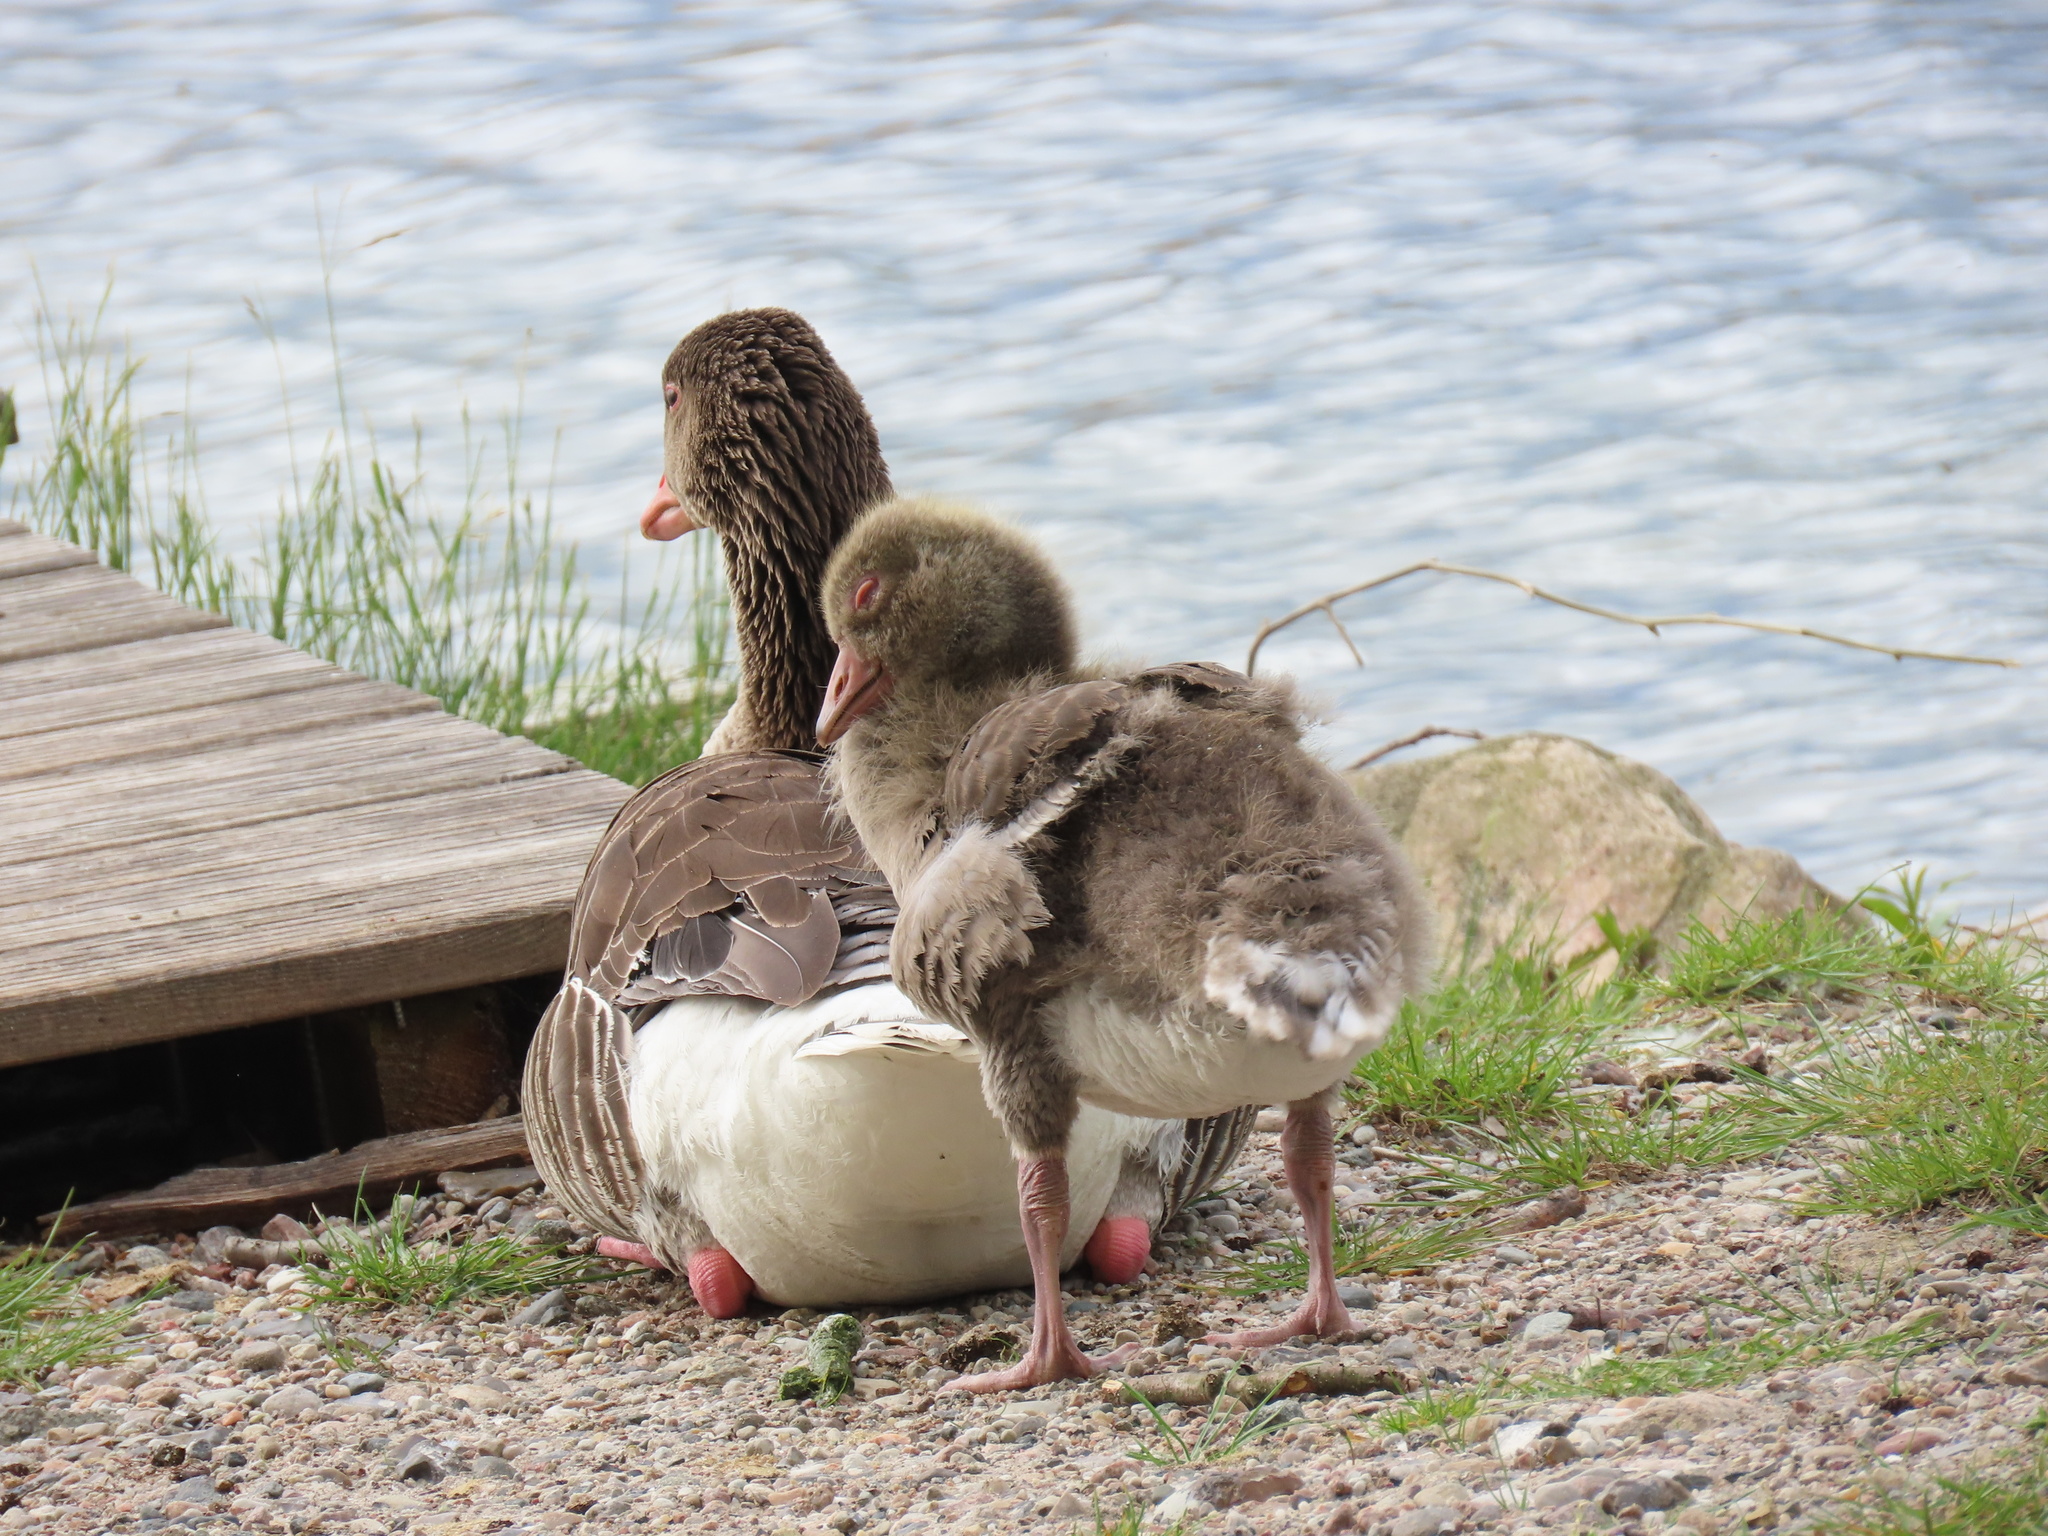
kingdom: Animalia
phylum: Chordata
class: Aves
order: Anseriformes
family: Anatidae
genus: Anser
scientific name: Anser anser
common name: Greylag goose
